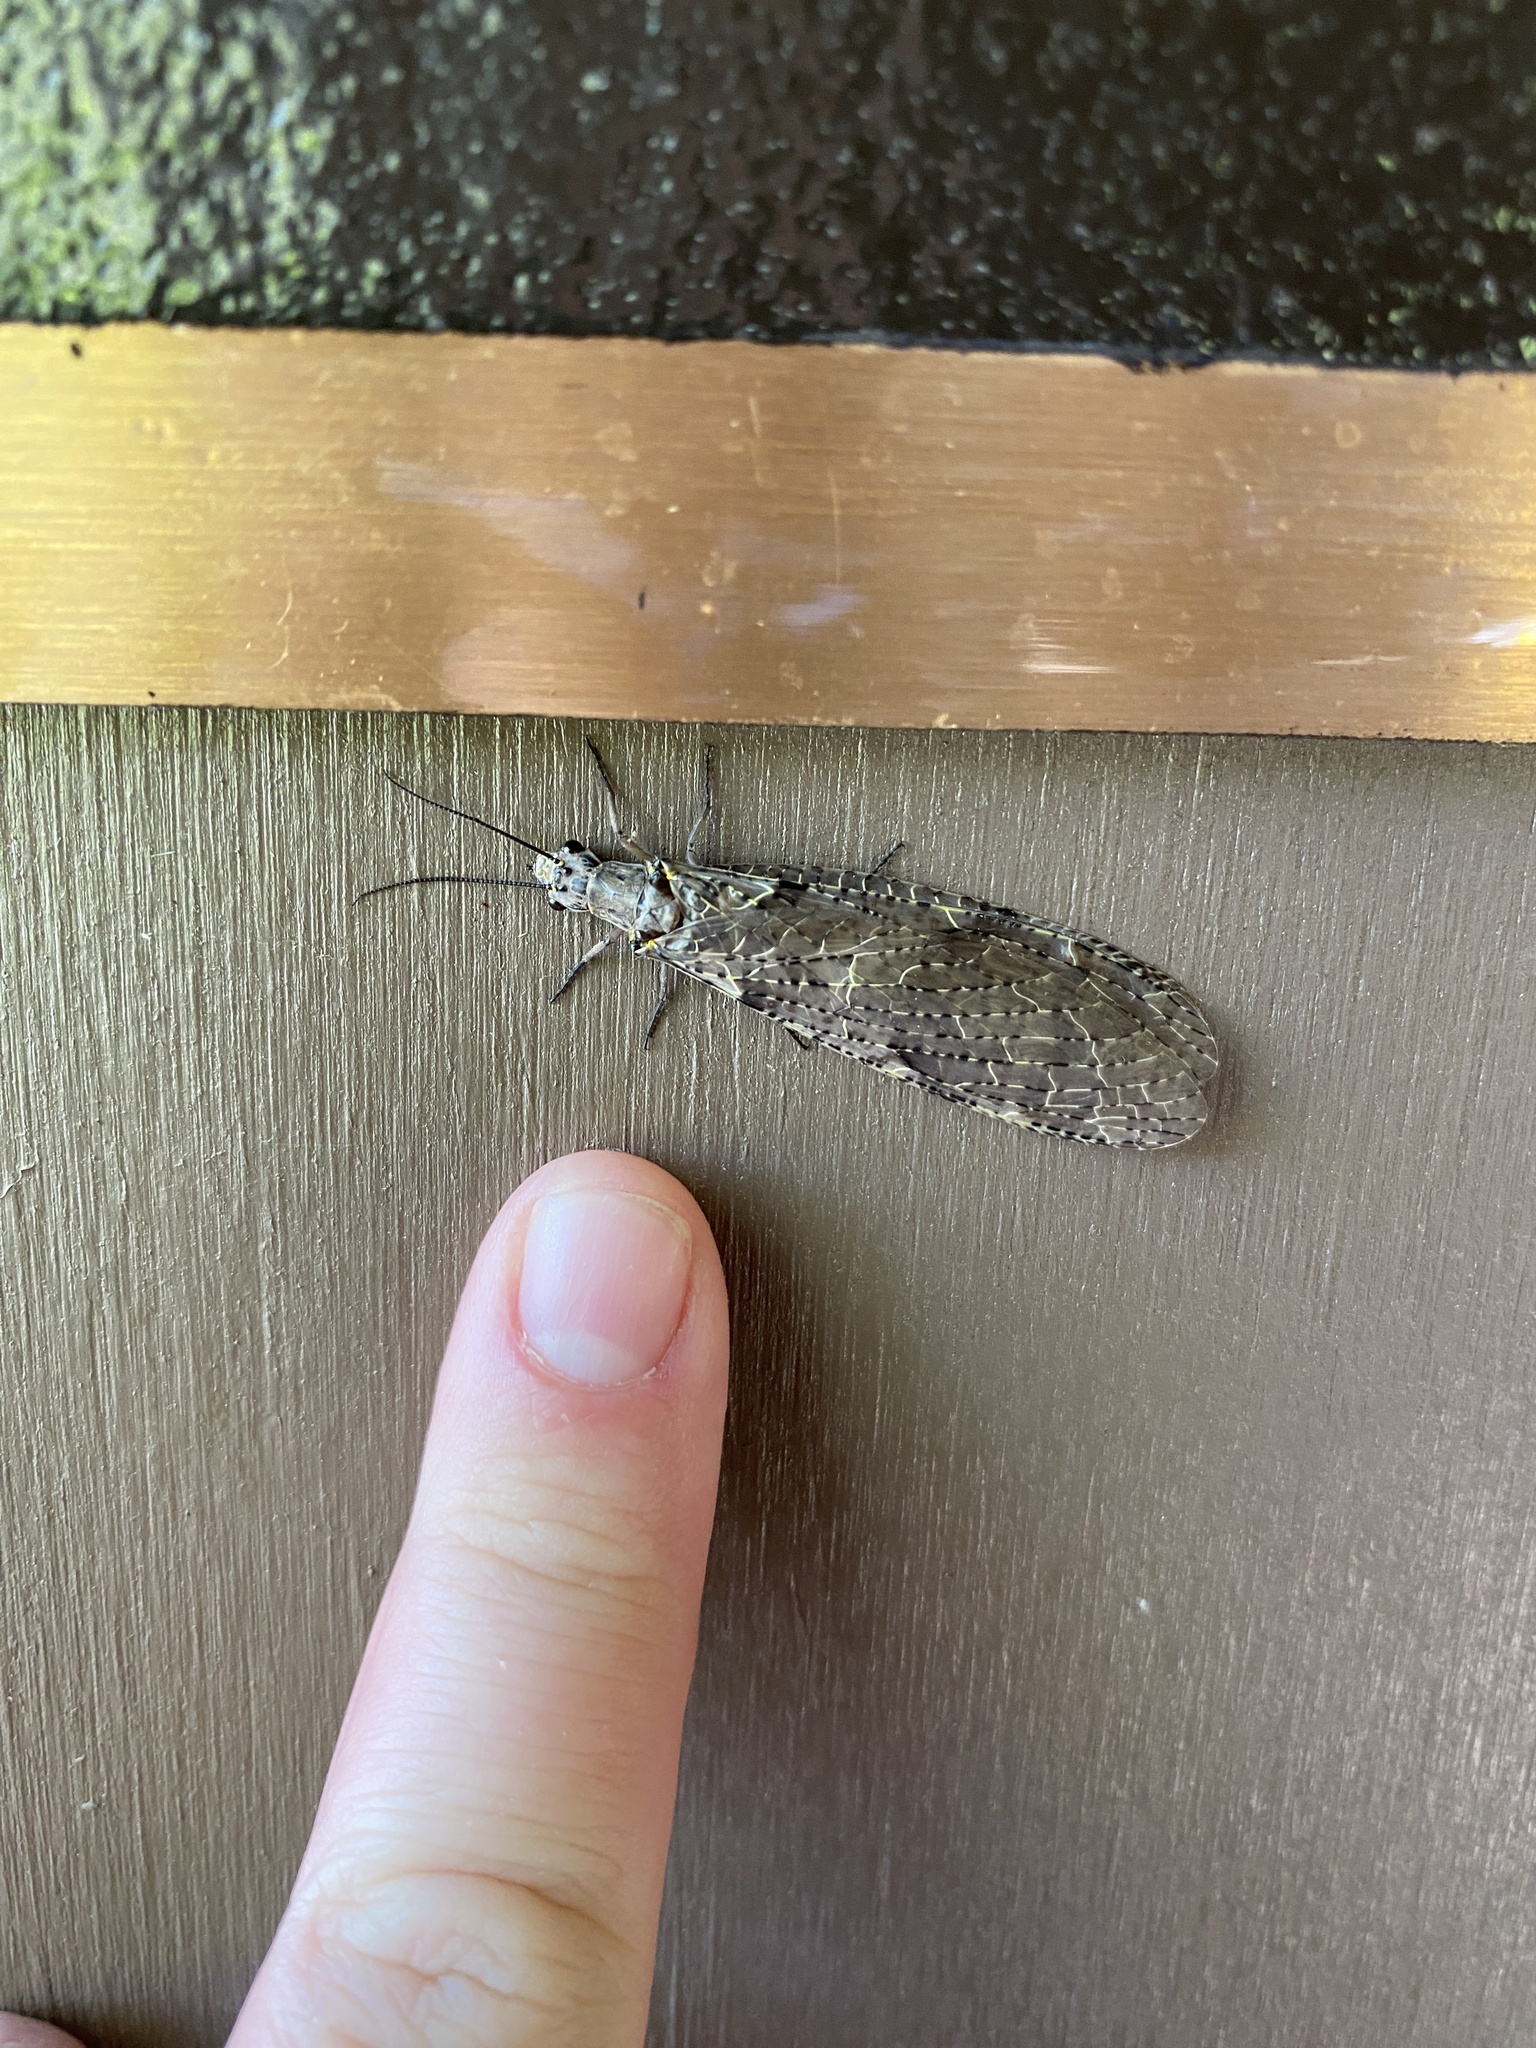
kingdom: Animalia
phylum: Arthropoda
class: Insecta
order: Megaloptera
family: Corydalidae
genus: Chauliodes
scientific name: Chauliodes rastricornis
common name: Spring fishfly
